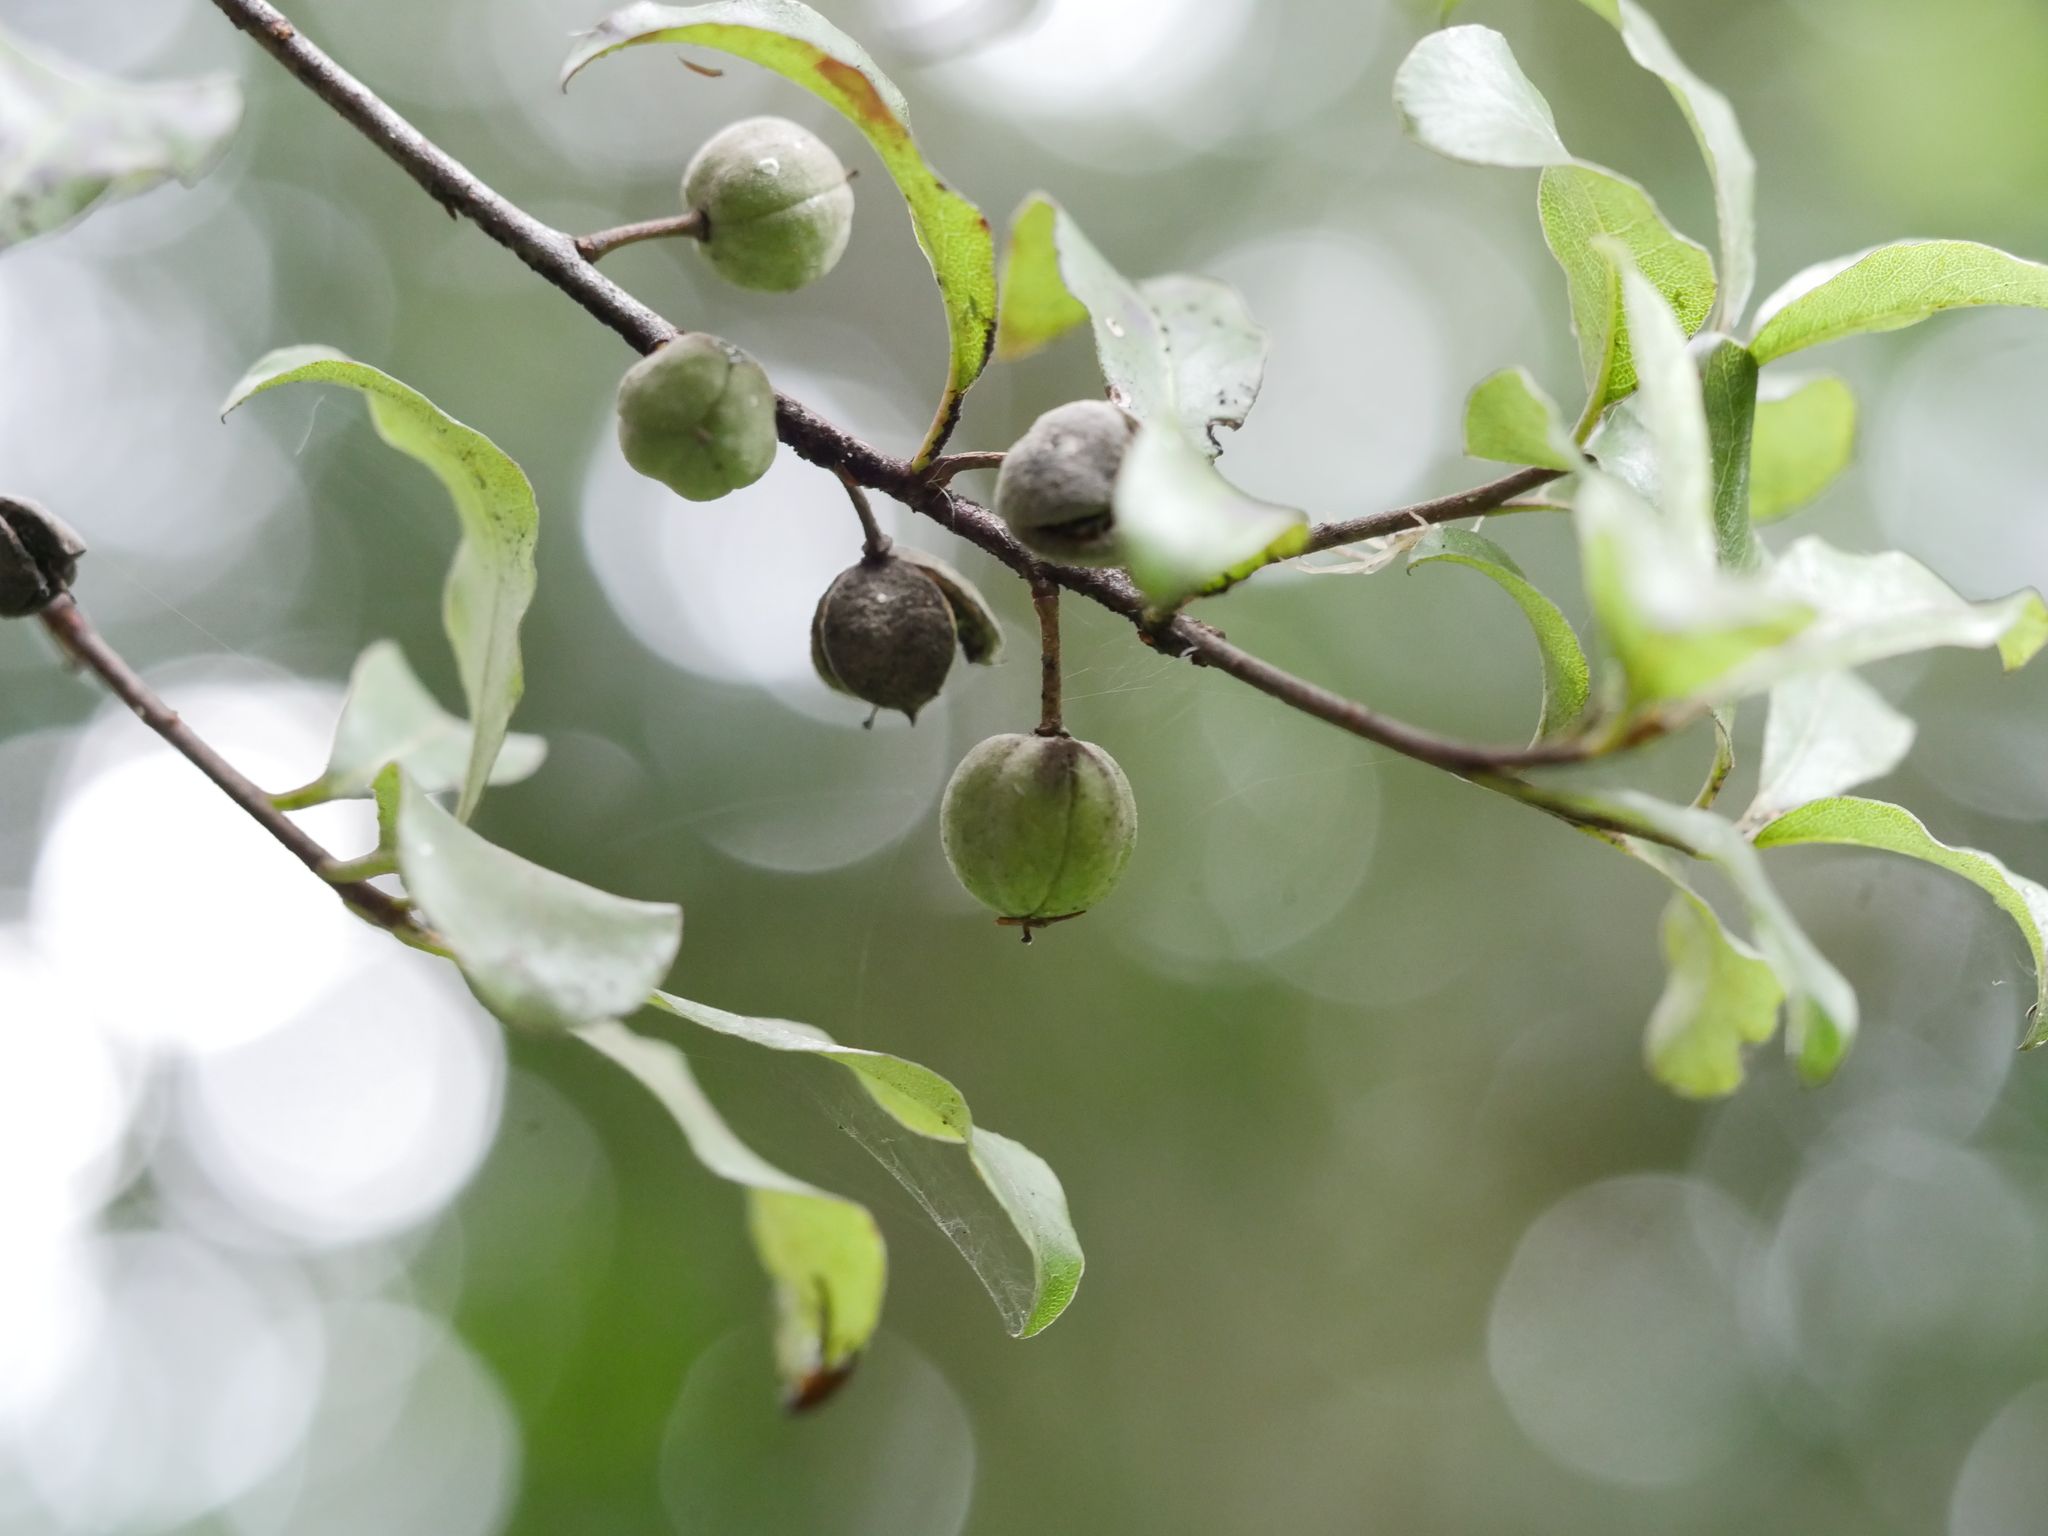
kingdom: Plantae
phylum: Tracheophyta
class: Magnoliopsida
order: Apiales
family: Pittosporaceae
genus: Pittosporum
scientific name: Pittosporum tenuifolium
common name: Kohuhu
